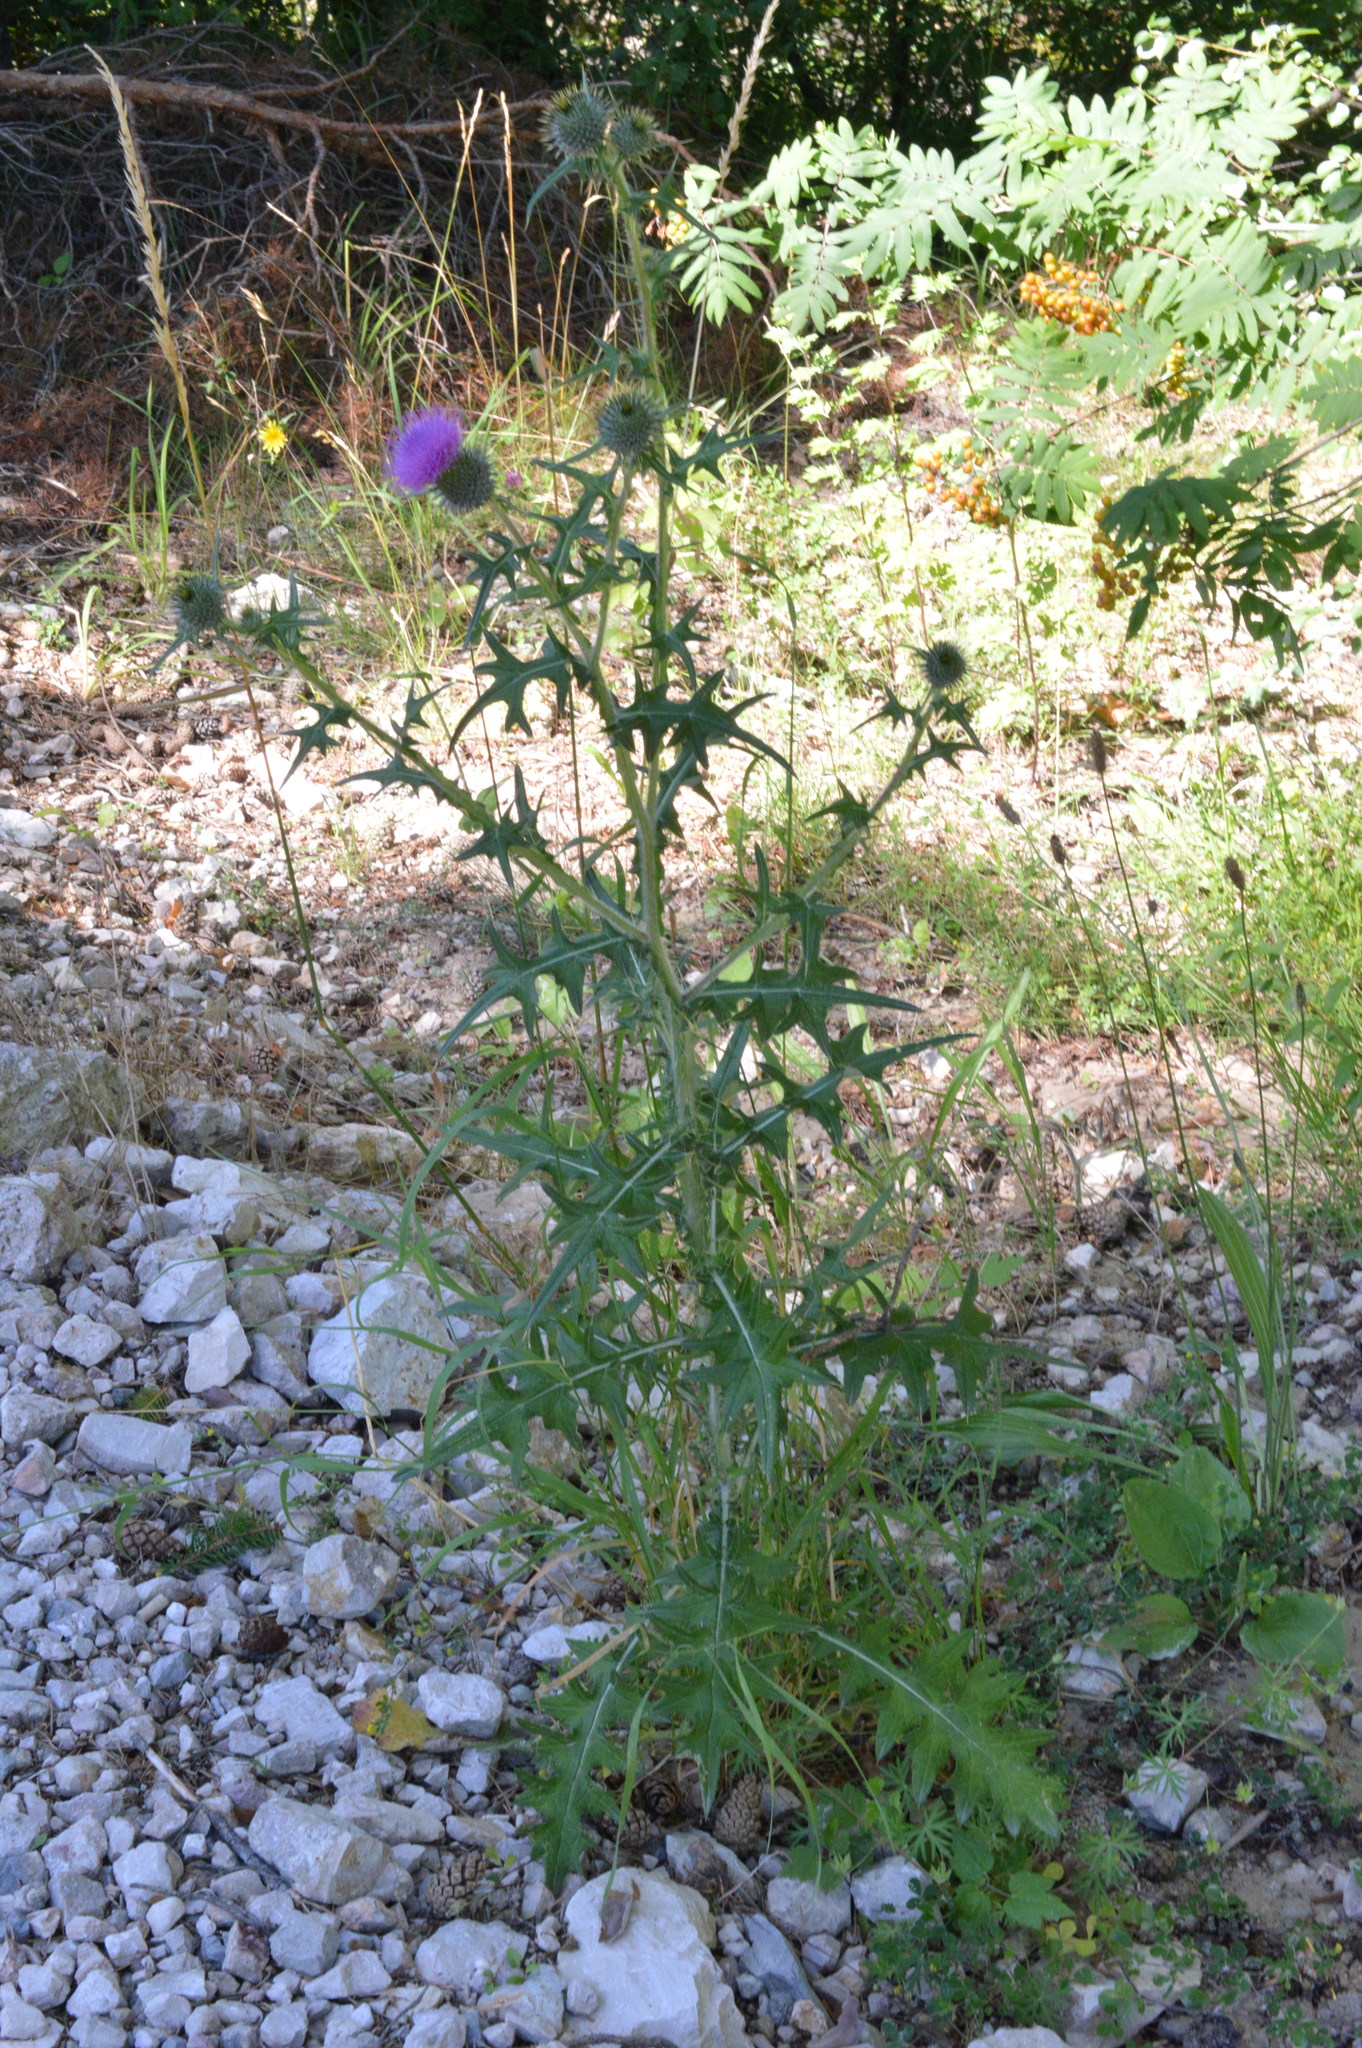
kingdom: Plantae
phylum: Tracheophyta
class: Magnoliopsida
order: Asterales
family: Asteraceae
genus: Cirsium
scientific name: Cirsium vulgare
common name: Bull thistle
